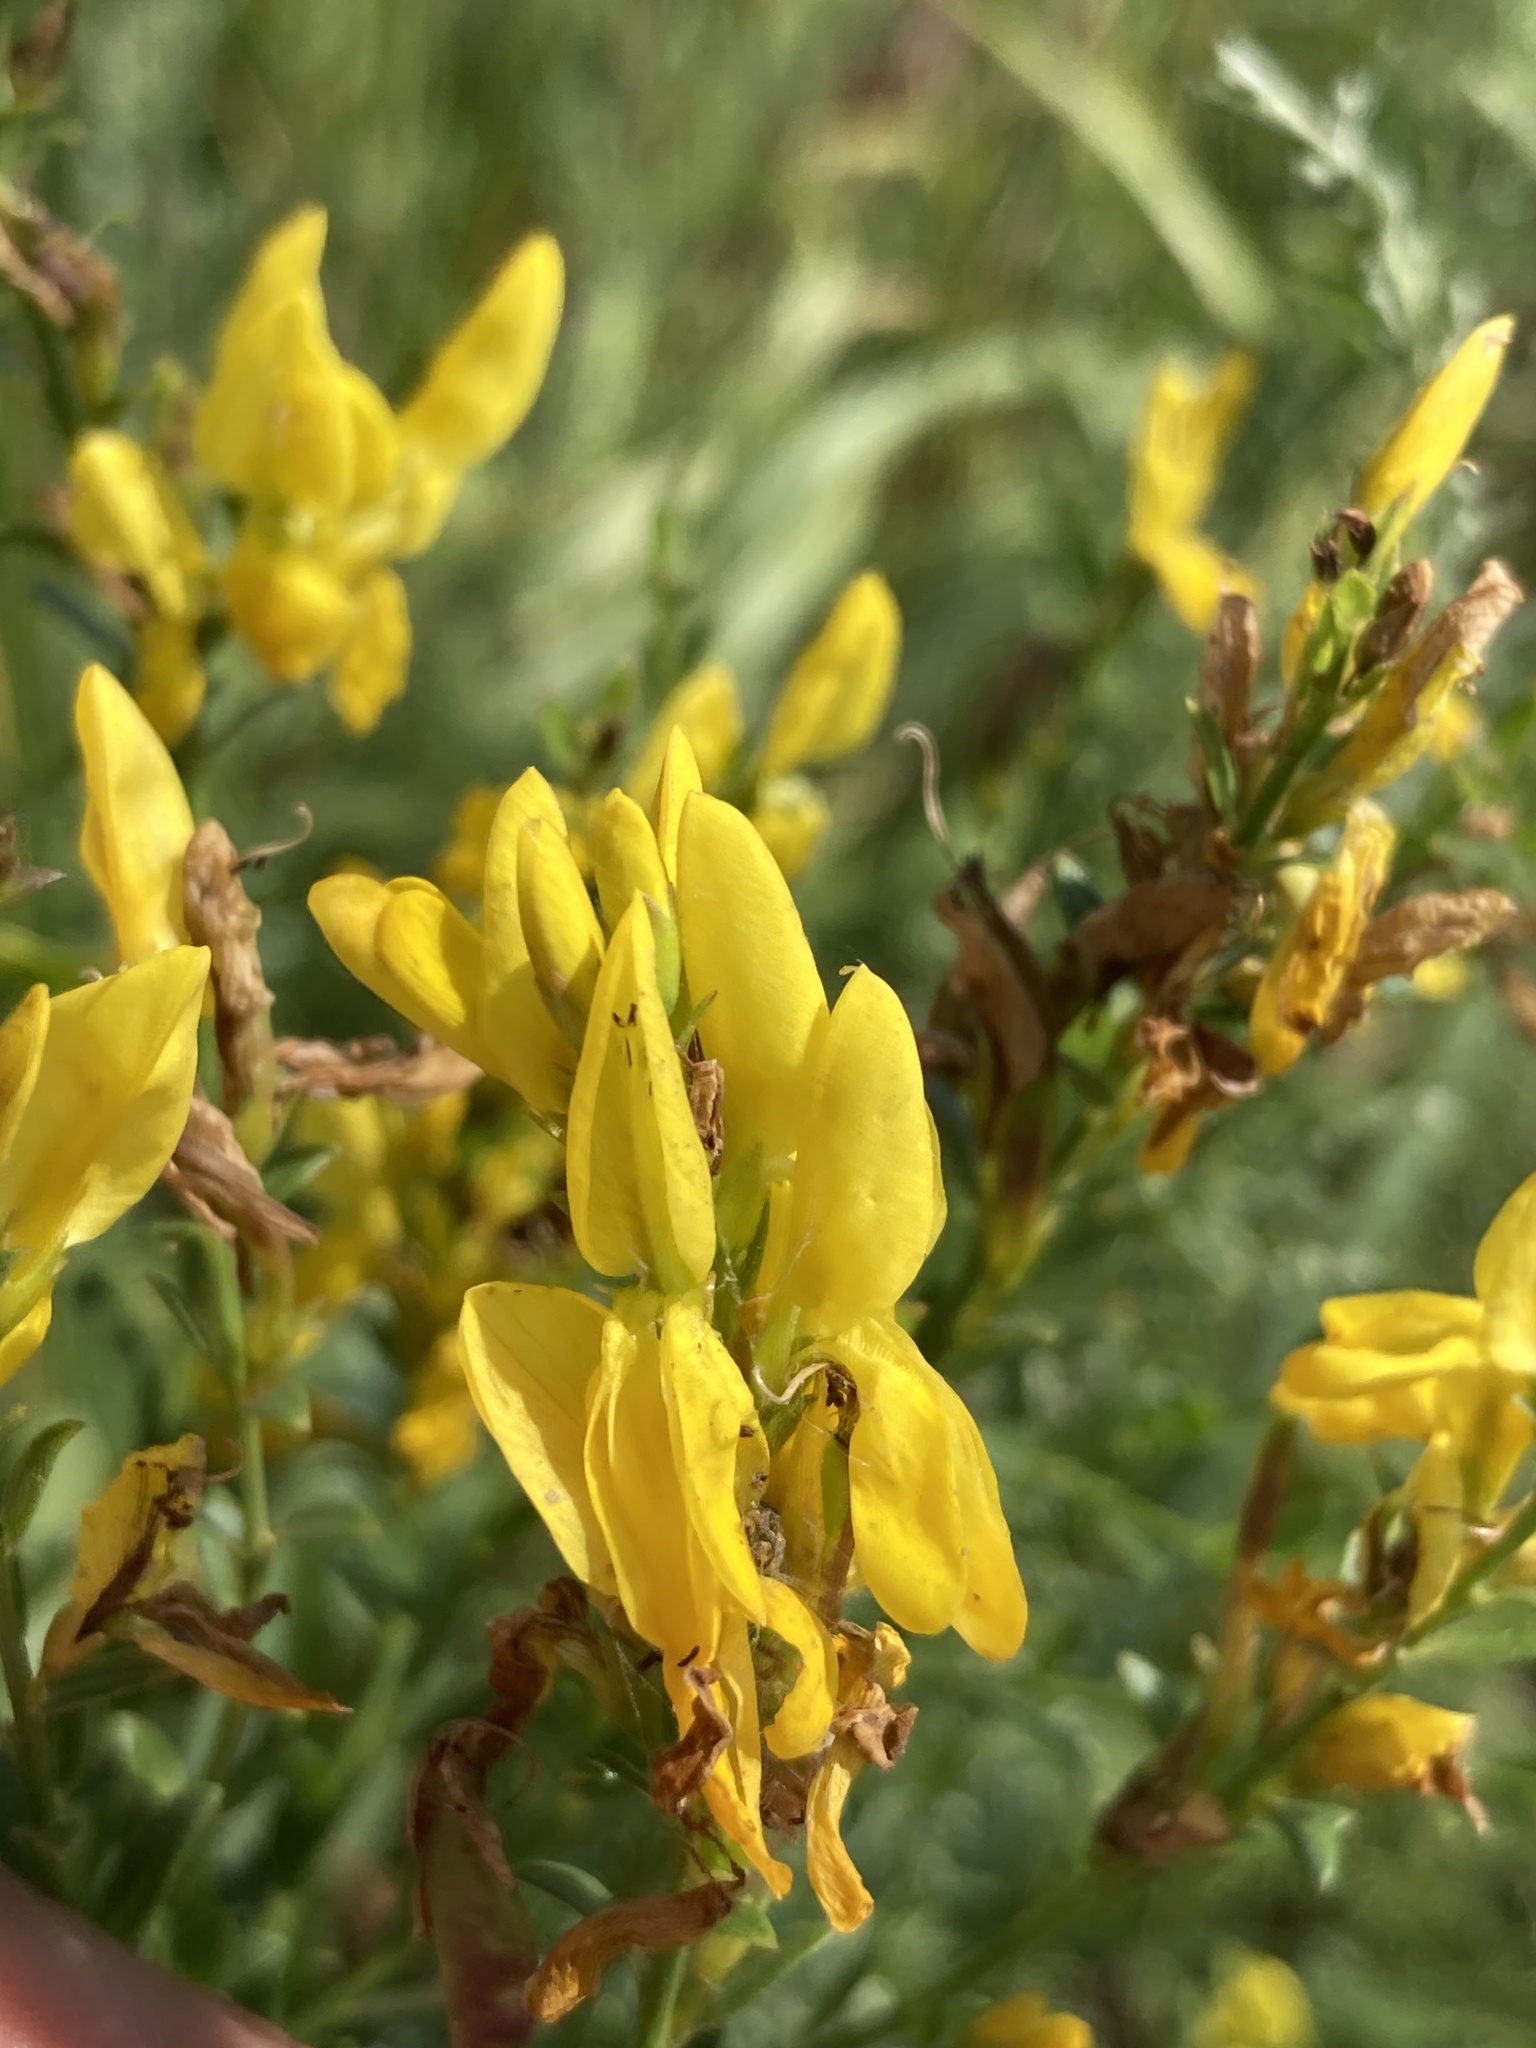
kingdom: Plantae
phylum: Tracheophyta
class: Magnoliopsida
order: Fabales
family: Fabaceae
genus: Genista
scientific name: Genista tinctoria
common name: Dyer's greenweed
